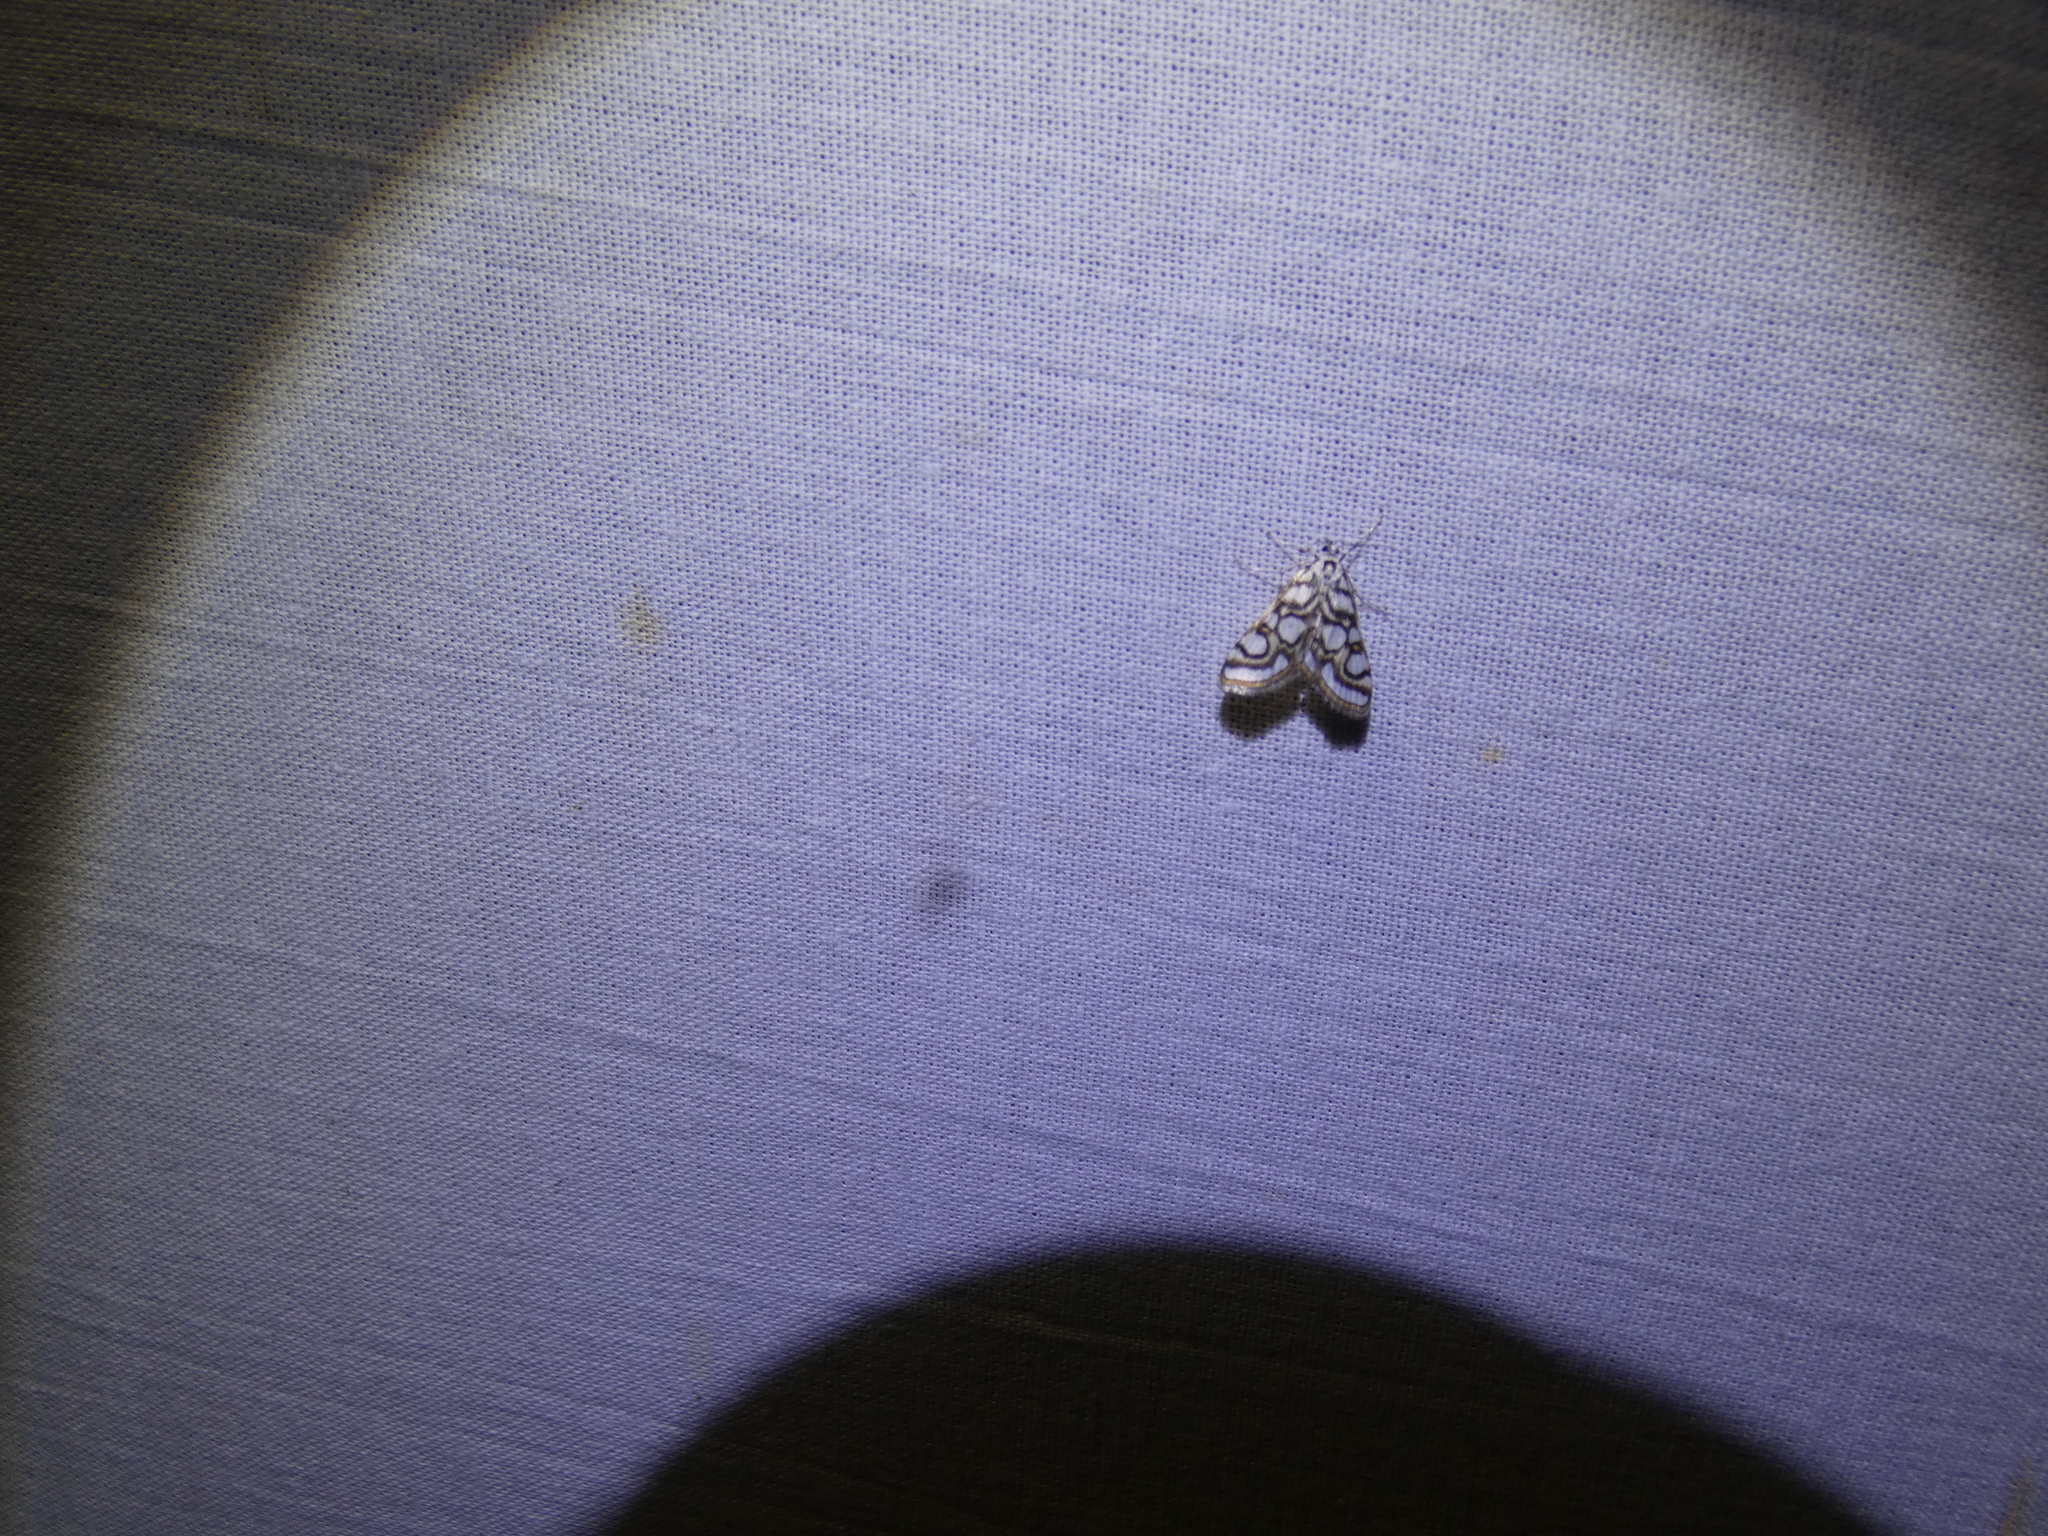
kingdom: Animalia
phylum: Arthropoda
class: Insecta
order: Lepidoptera
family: Crambidae
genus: Nymphula
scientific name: Nymphula nitidulata
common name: Beautiful china mark
